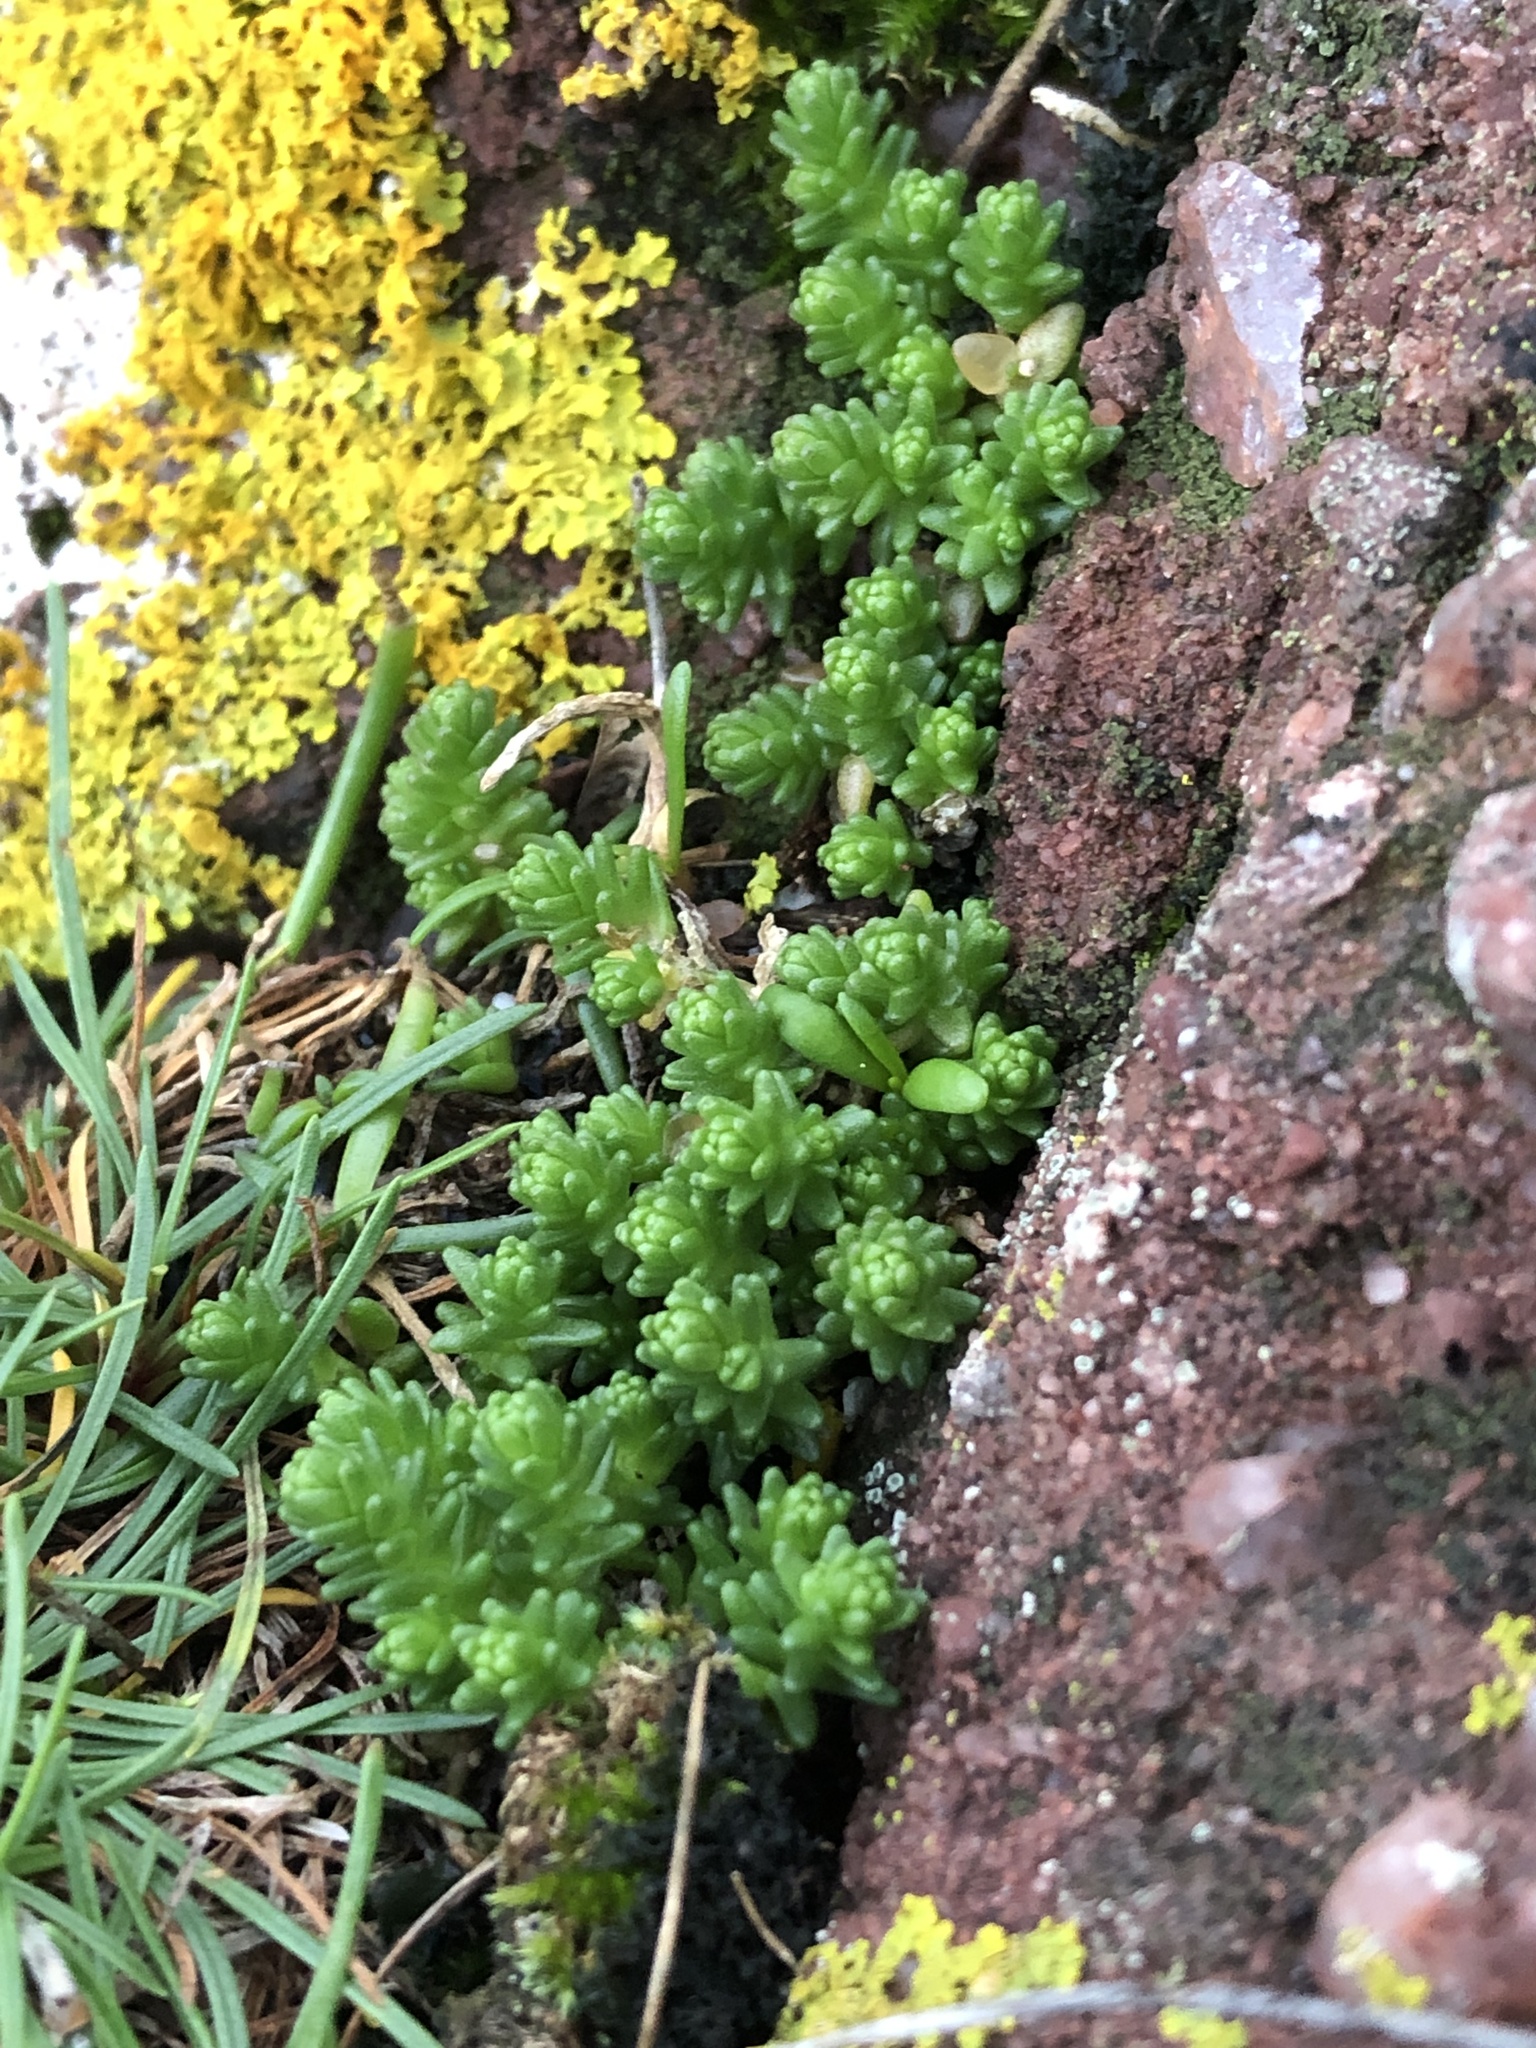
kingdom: Plantae
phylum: Tracheophyta
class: Magnoliopsida
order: Saxifragales
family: Crassulaceae
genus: Sedum
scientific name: Sedum acre
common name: Biting stonecrop
